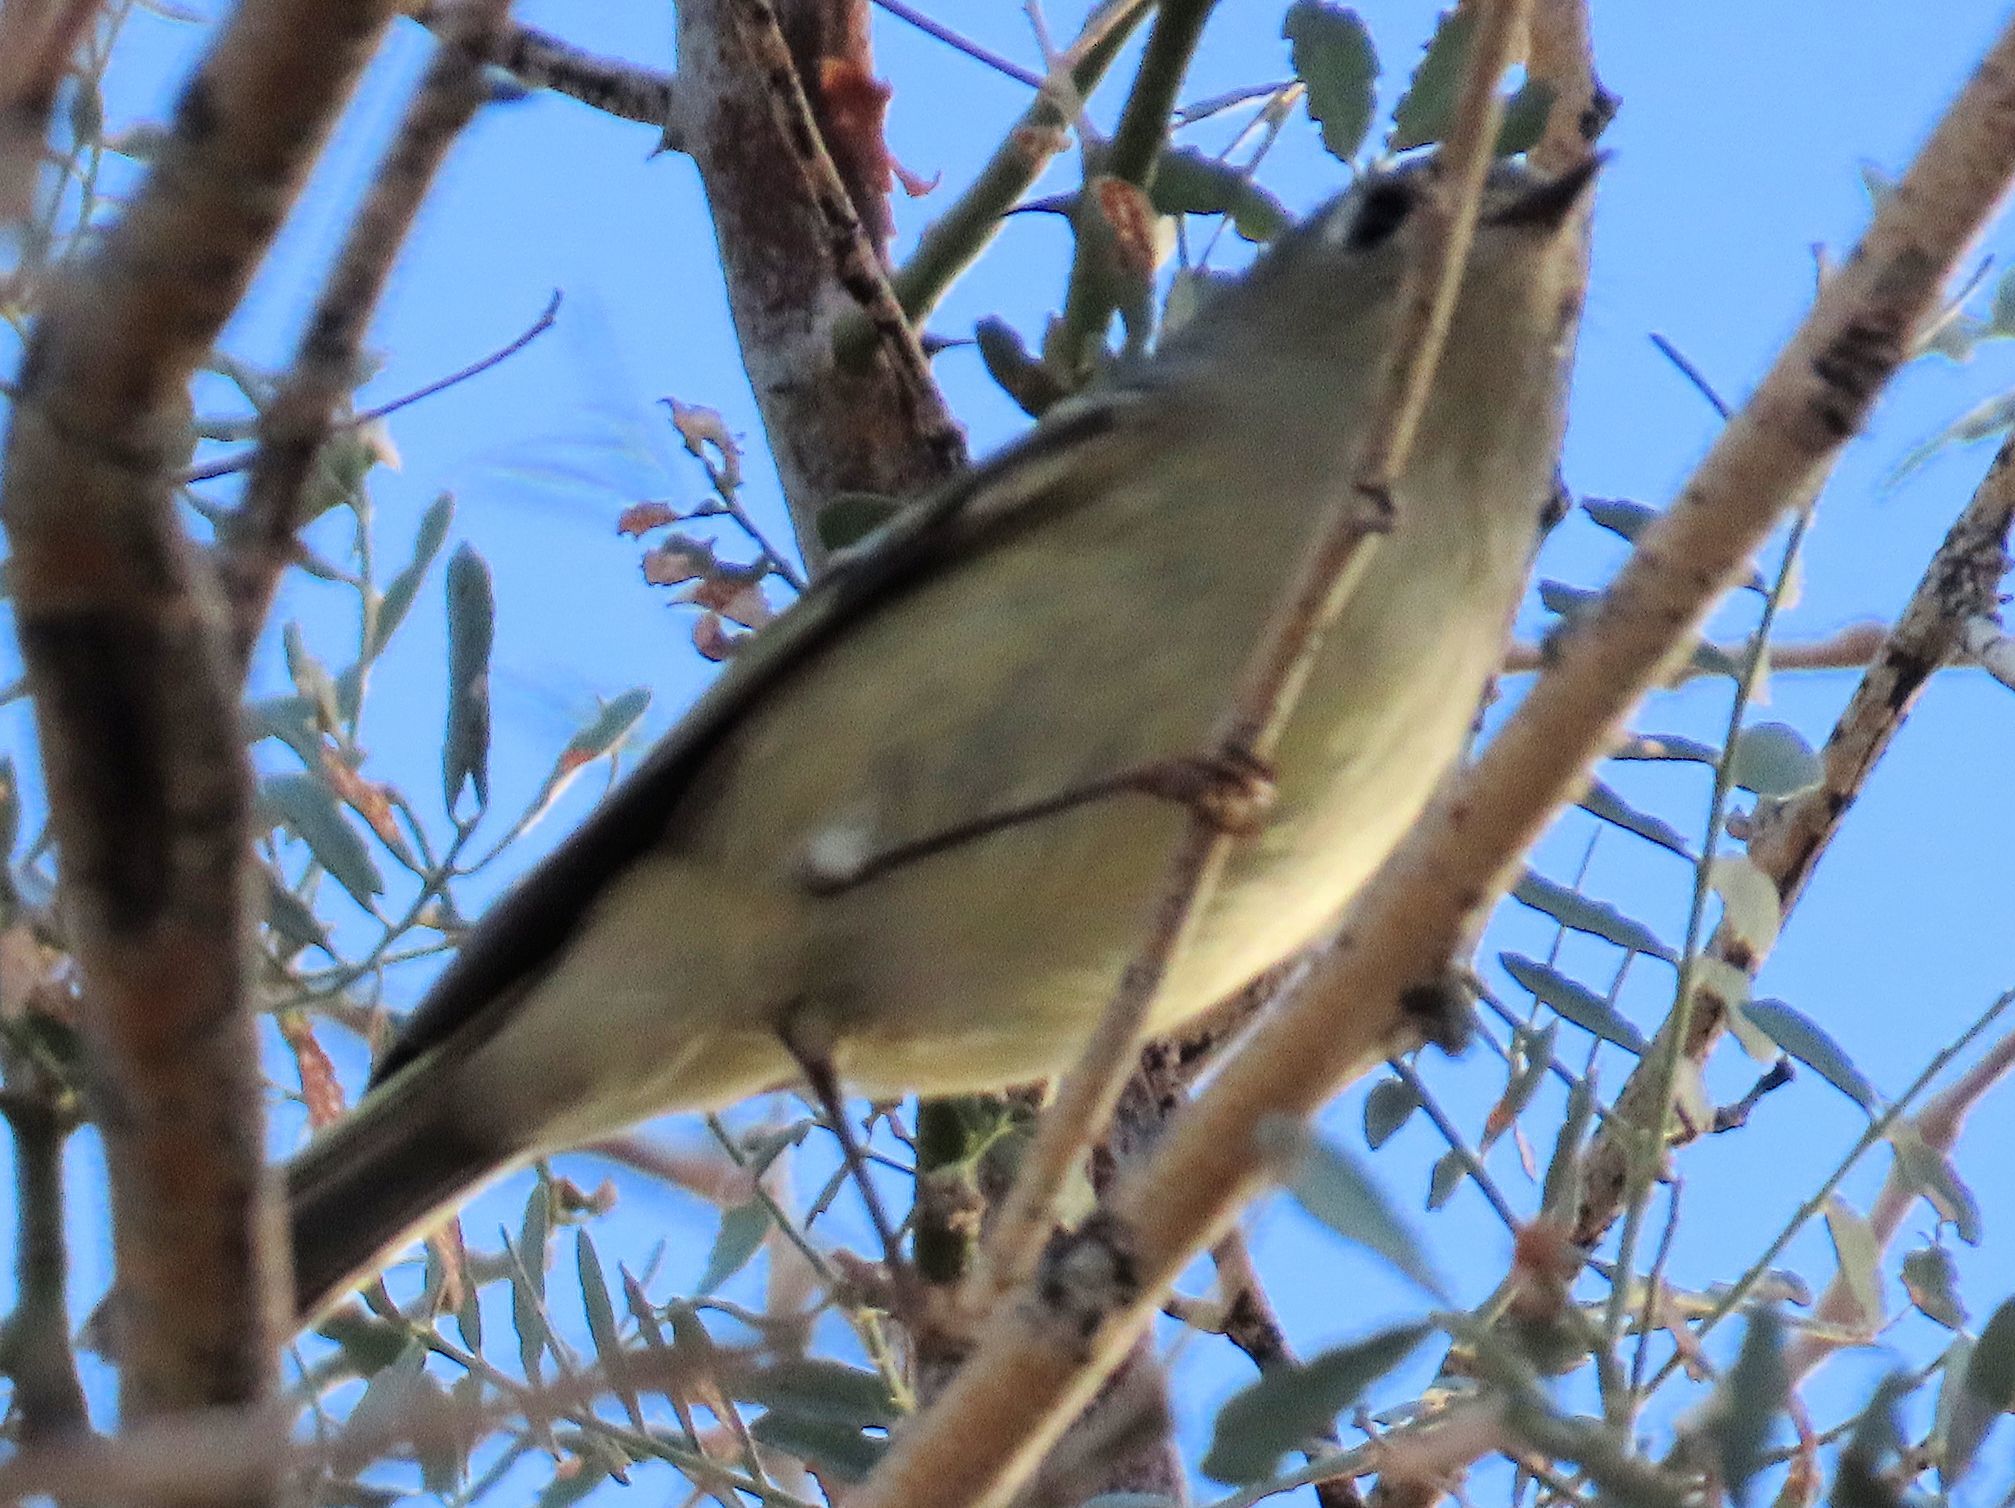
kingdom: Animalia
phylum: Chordata
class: Aves
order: Passeriformes
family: Regulidae
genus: Regulus
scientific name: Regulus calendula
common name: Ruby-crowned kinglet
